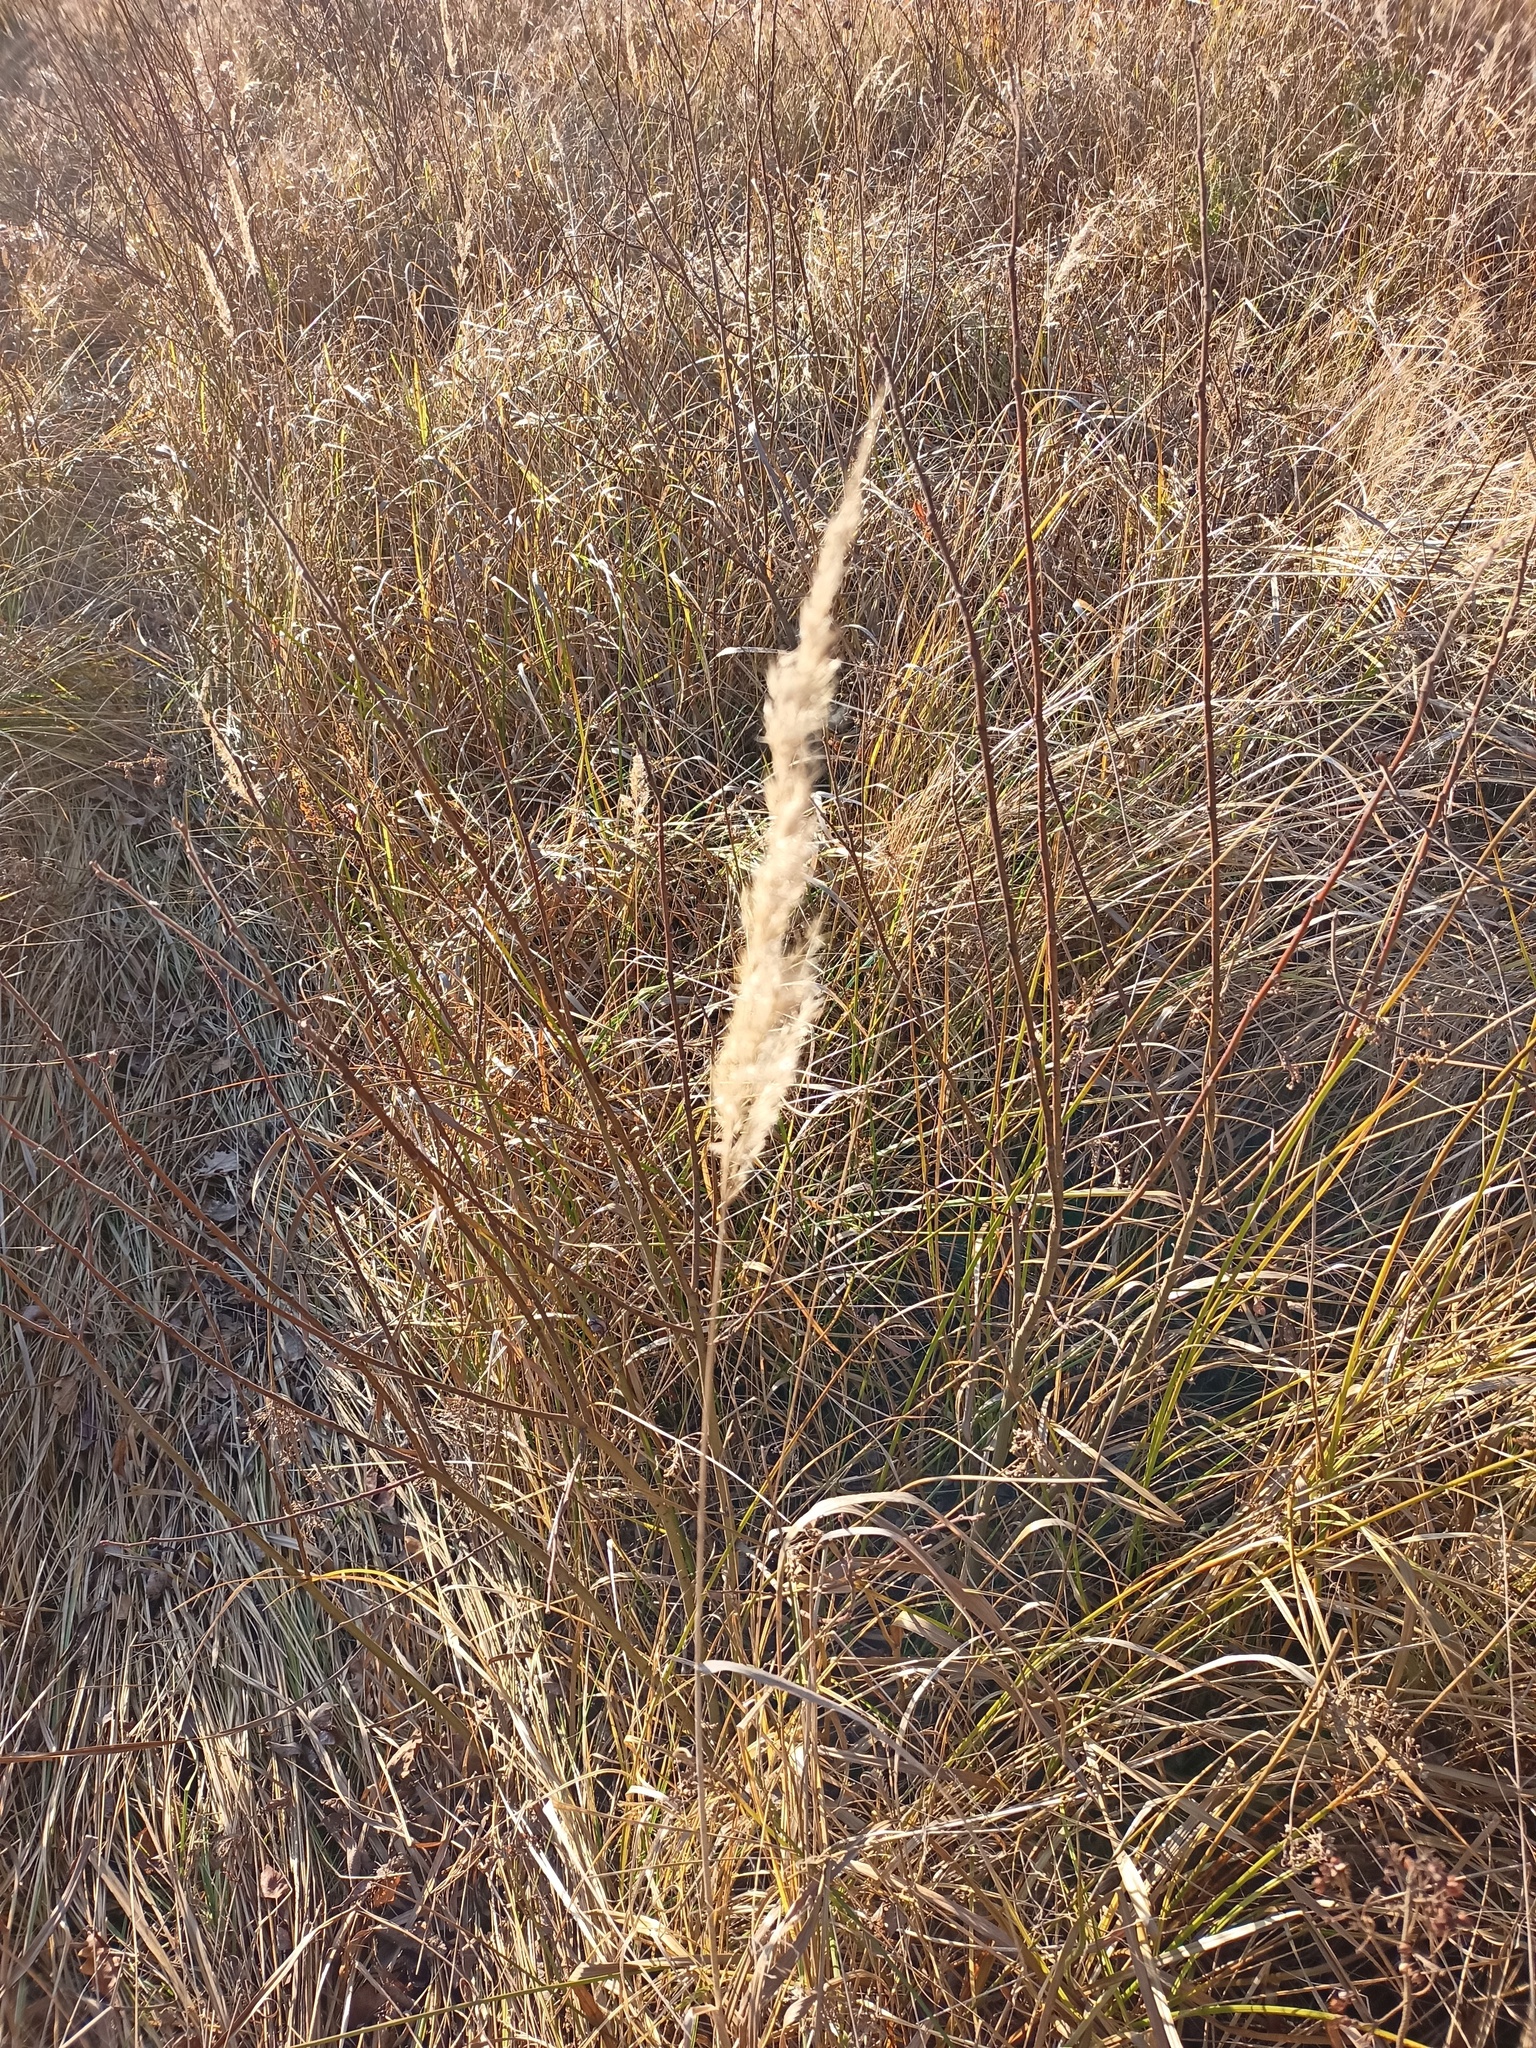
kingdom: Plantae
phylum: Tracheophyta
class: Liliopsida
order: Poales
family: Poaceae
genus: Calamagrostis
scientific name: Calamagrostis epigejos
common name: Wood small-reed
